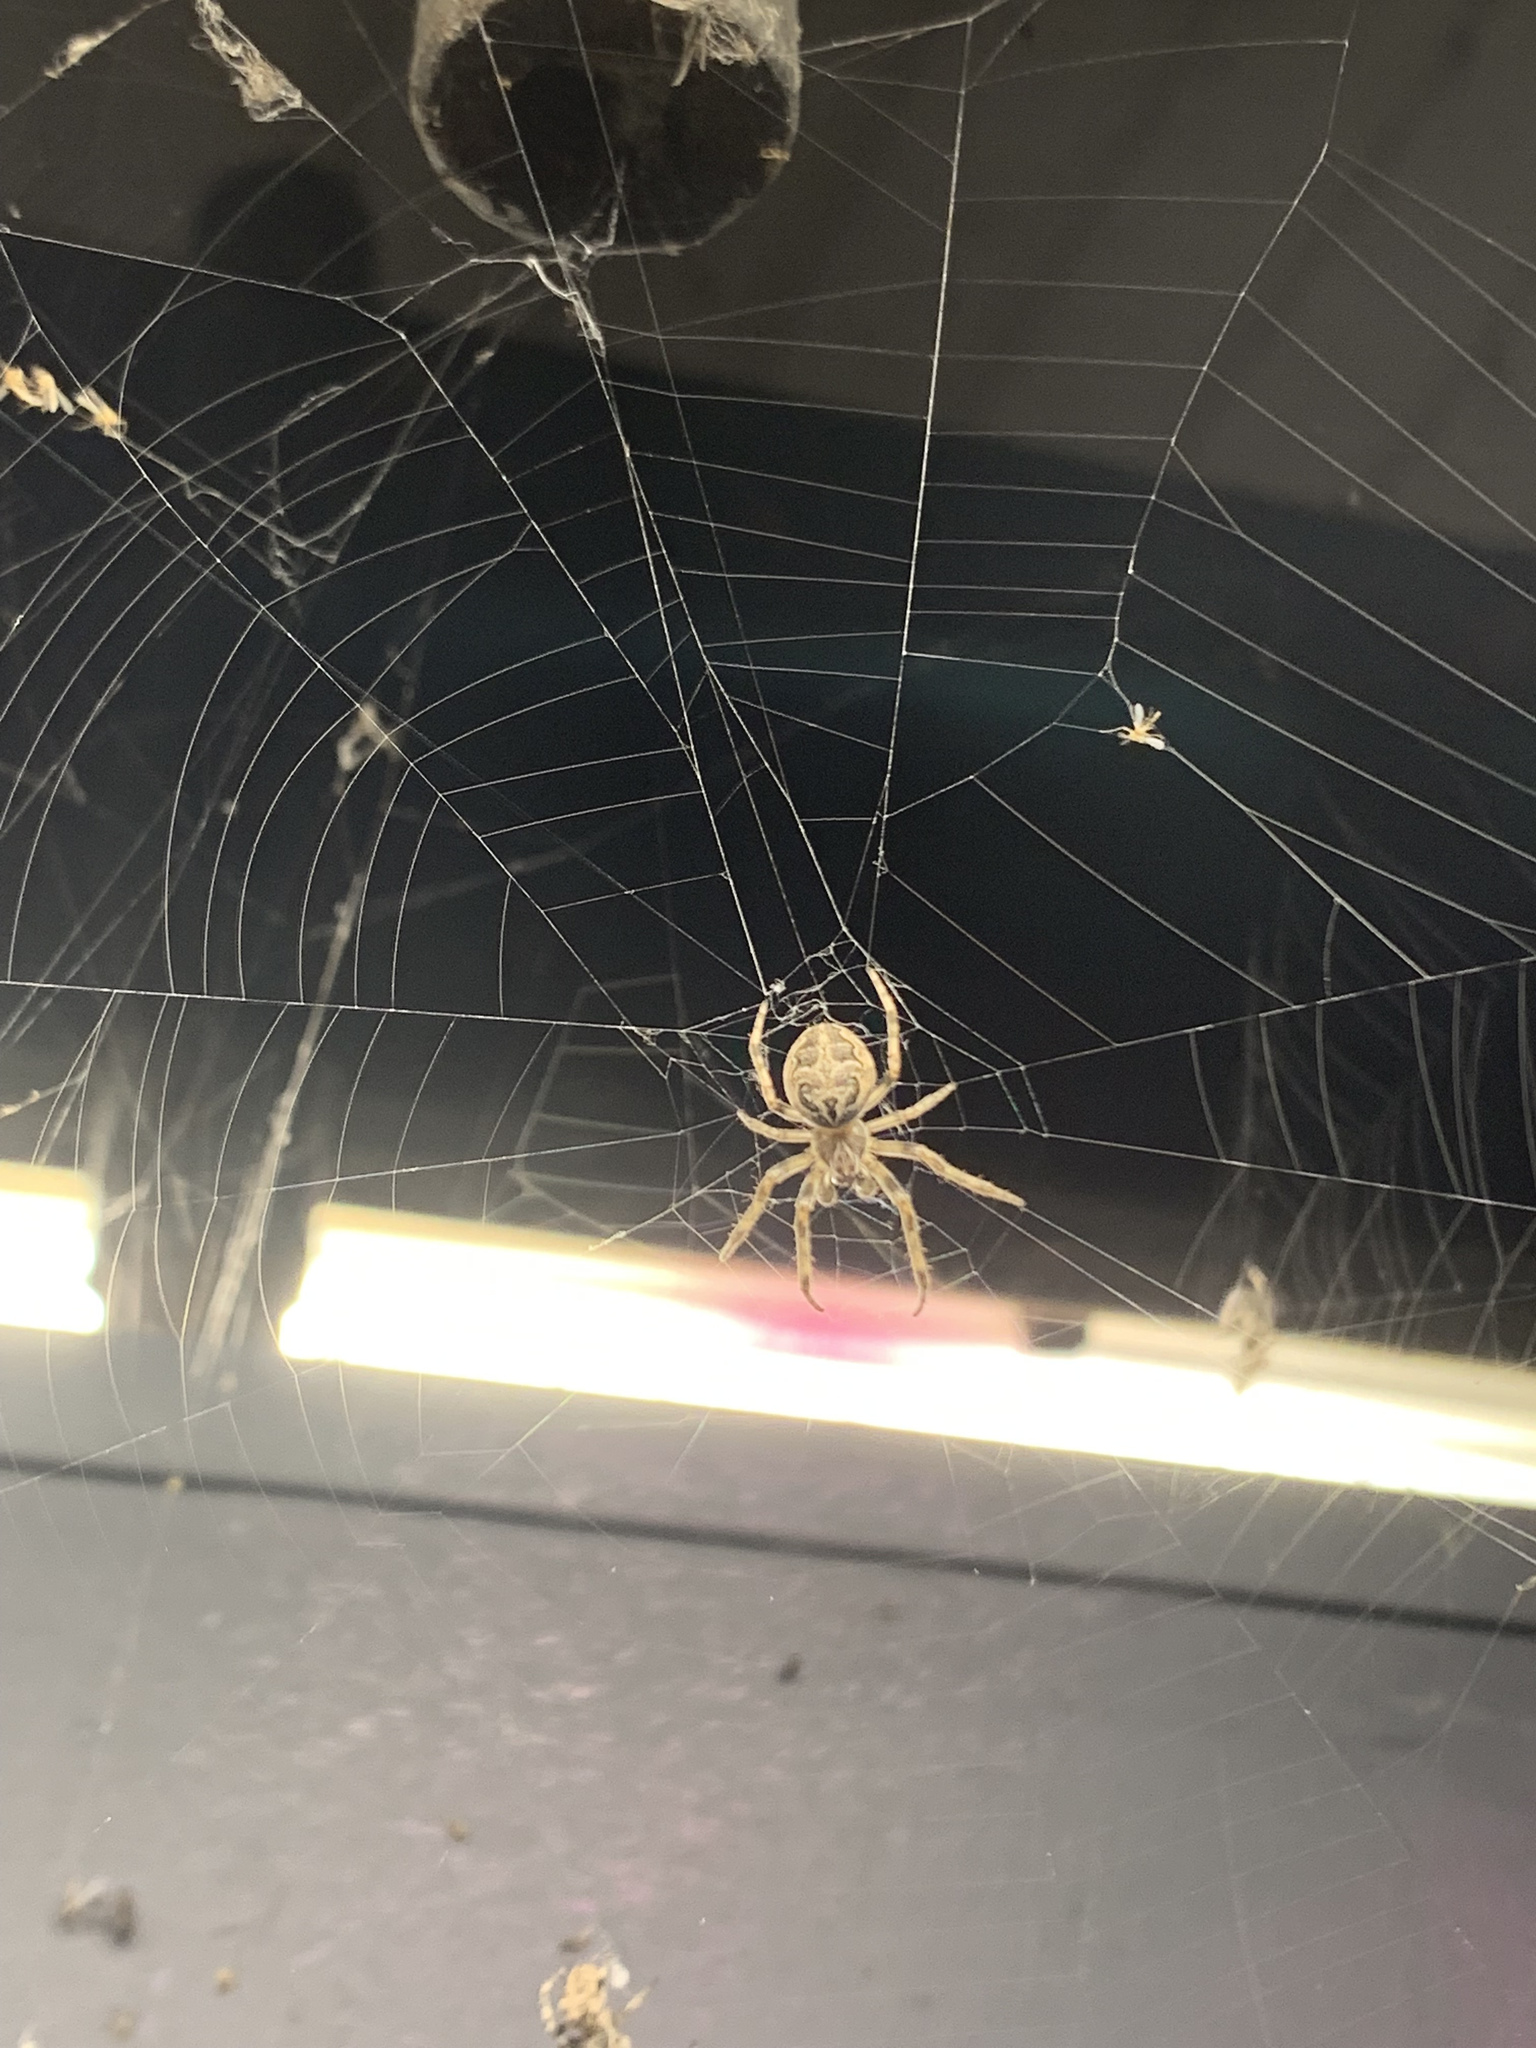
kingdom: Animalia
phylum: Arthropoda
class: Arachnida
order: Araneae
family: Araneidae
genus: Larinioides
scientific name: Larinioides sclopetarius
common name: Bridge orbweaver
